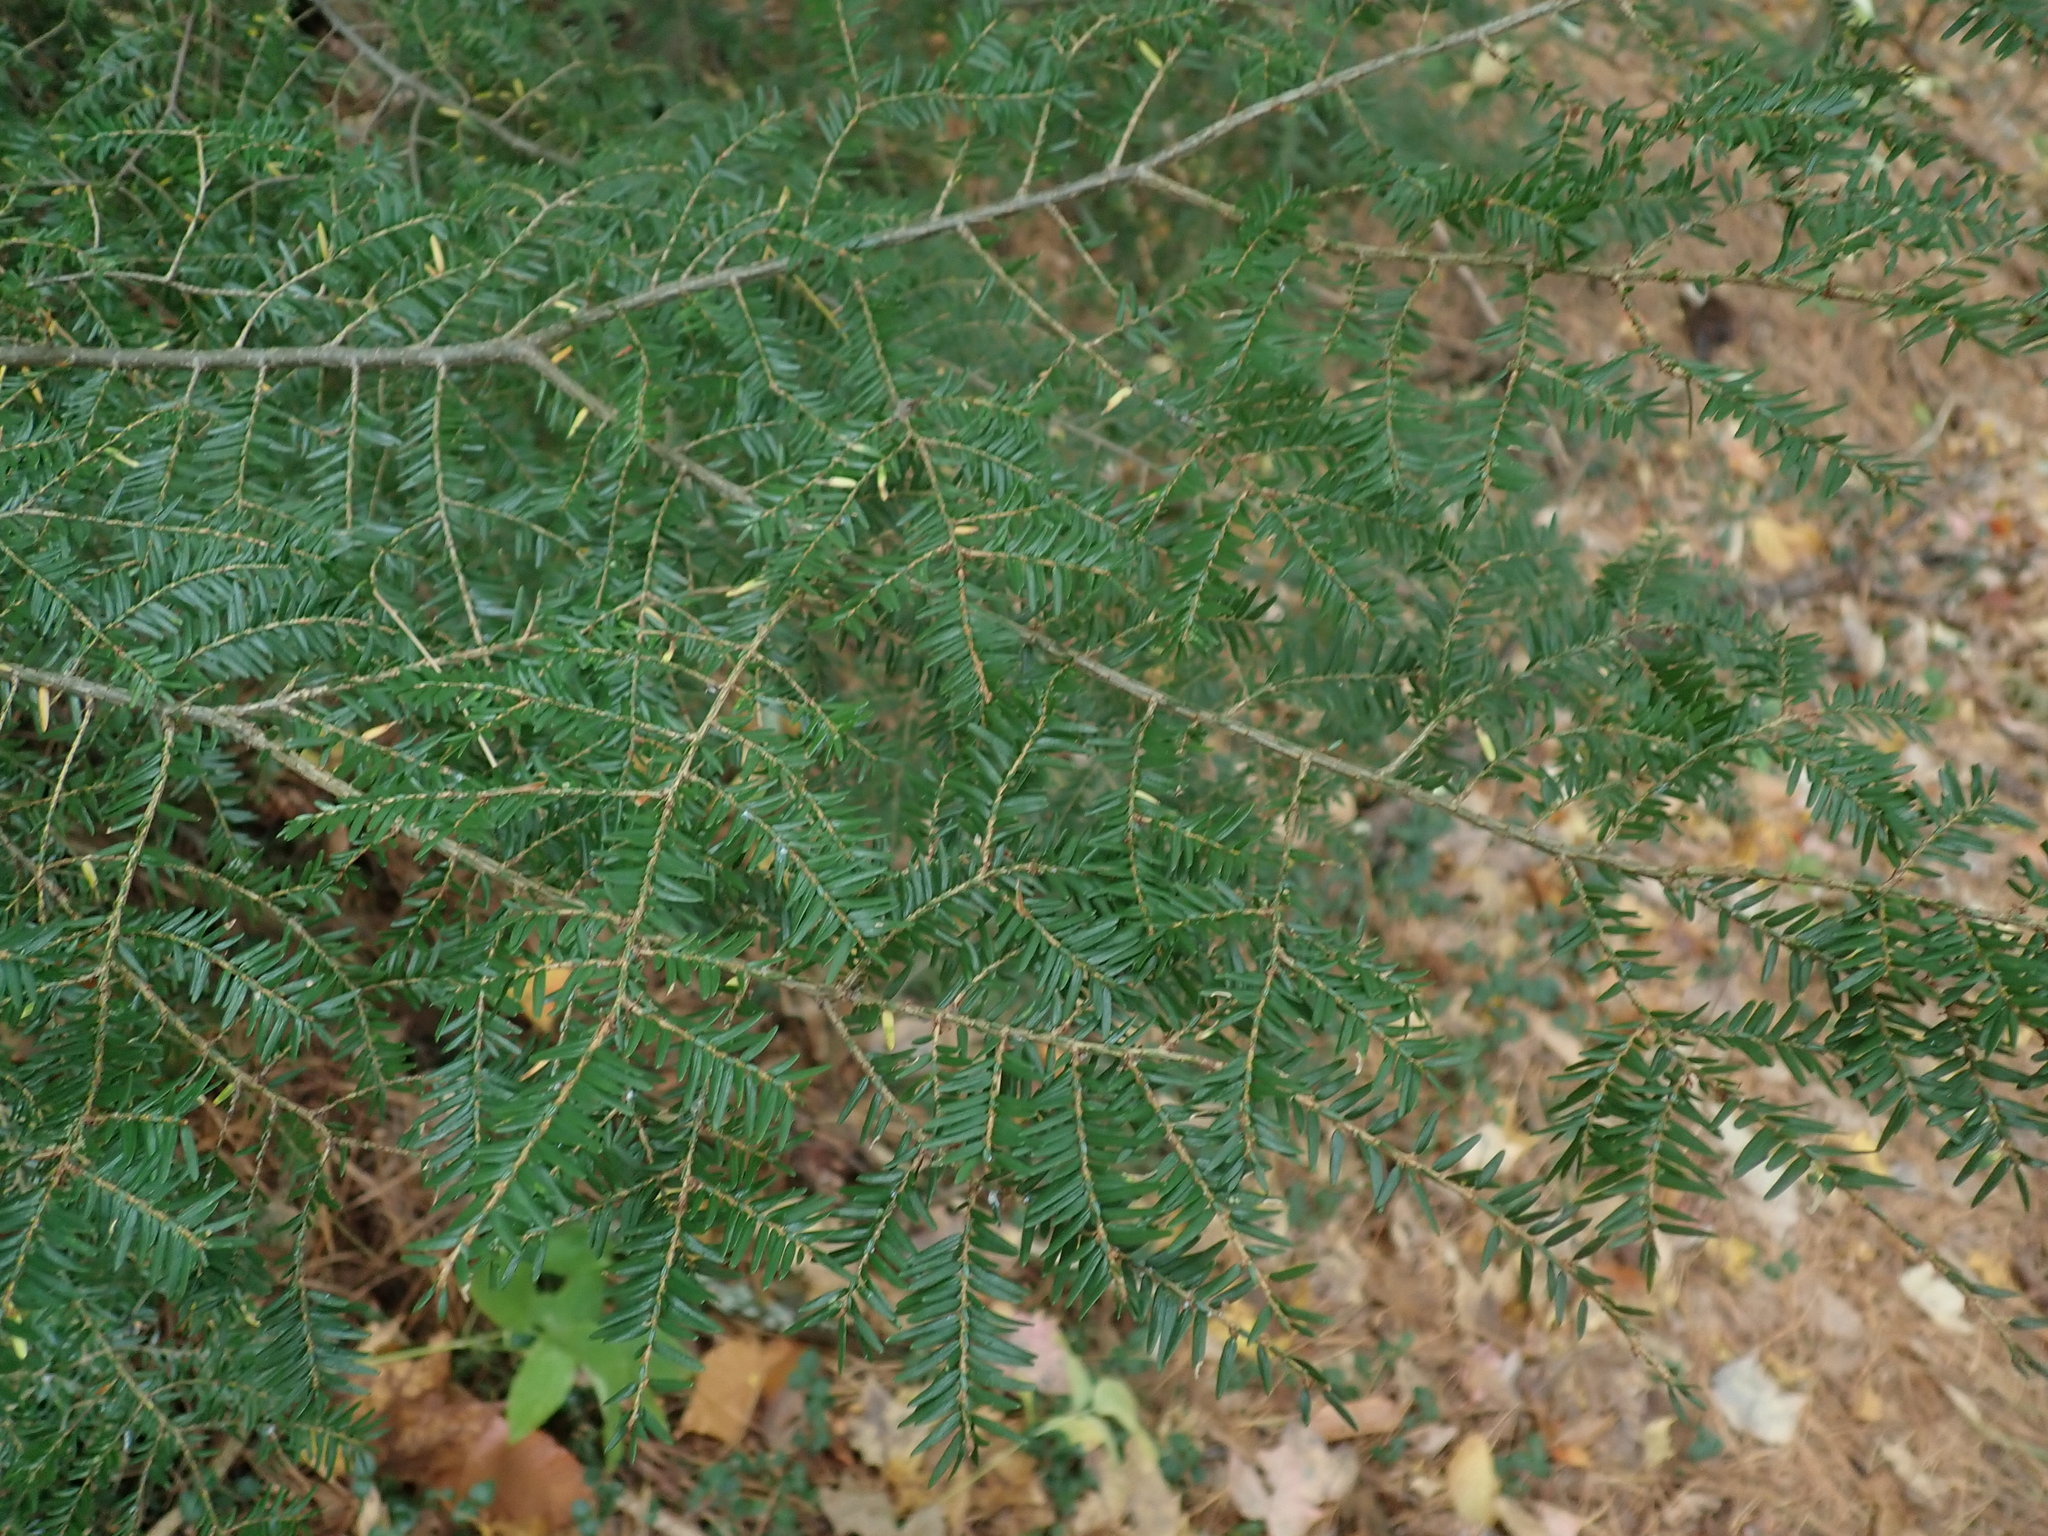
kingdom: Plantae
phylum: Tracheophyta
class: Pinopsida
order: Pinales
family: Pinaceae
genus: Tsuga
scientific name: Tsuga canadensis
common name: Eastern hemlock
